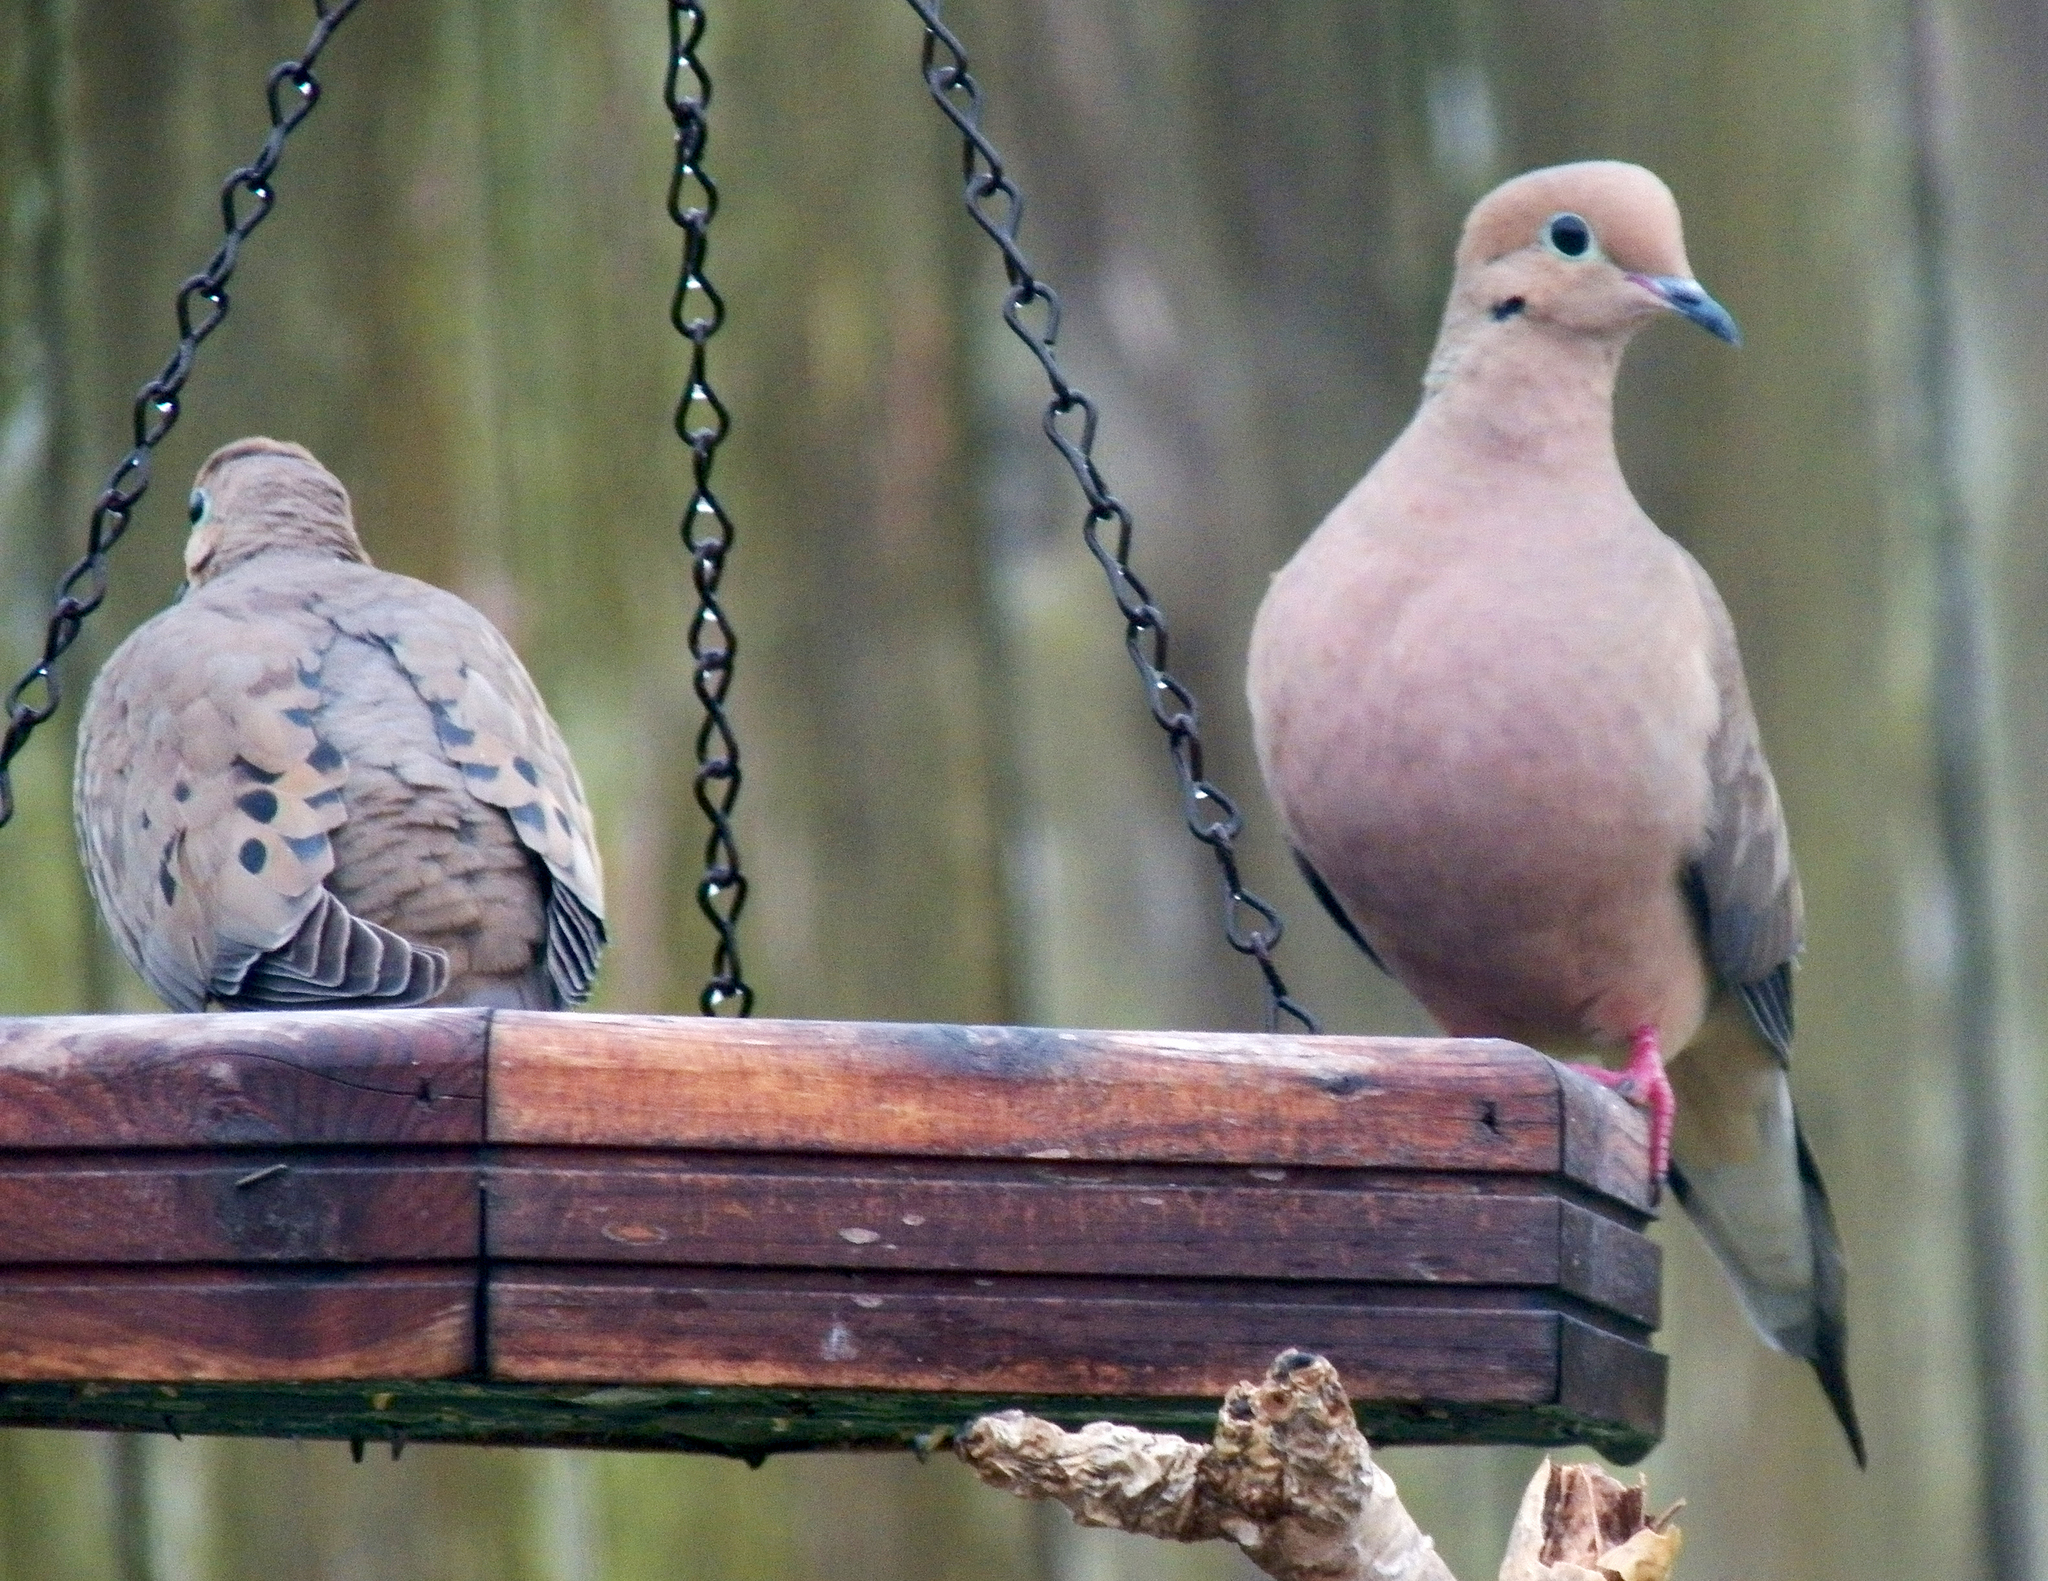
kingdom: Animalia
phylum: Chordata
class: Aves
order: Columbiformes
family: Columbidae
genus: Zenaida
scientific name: Zenaida macroura
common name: Mourning dove
